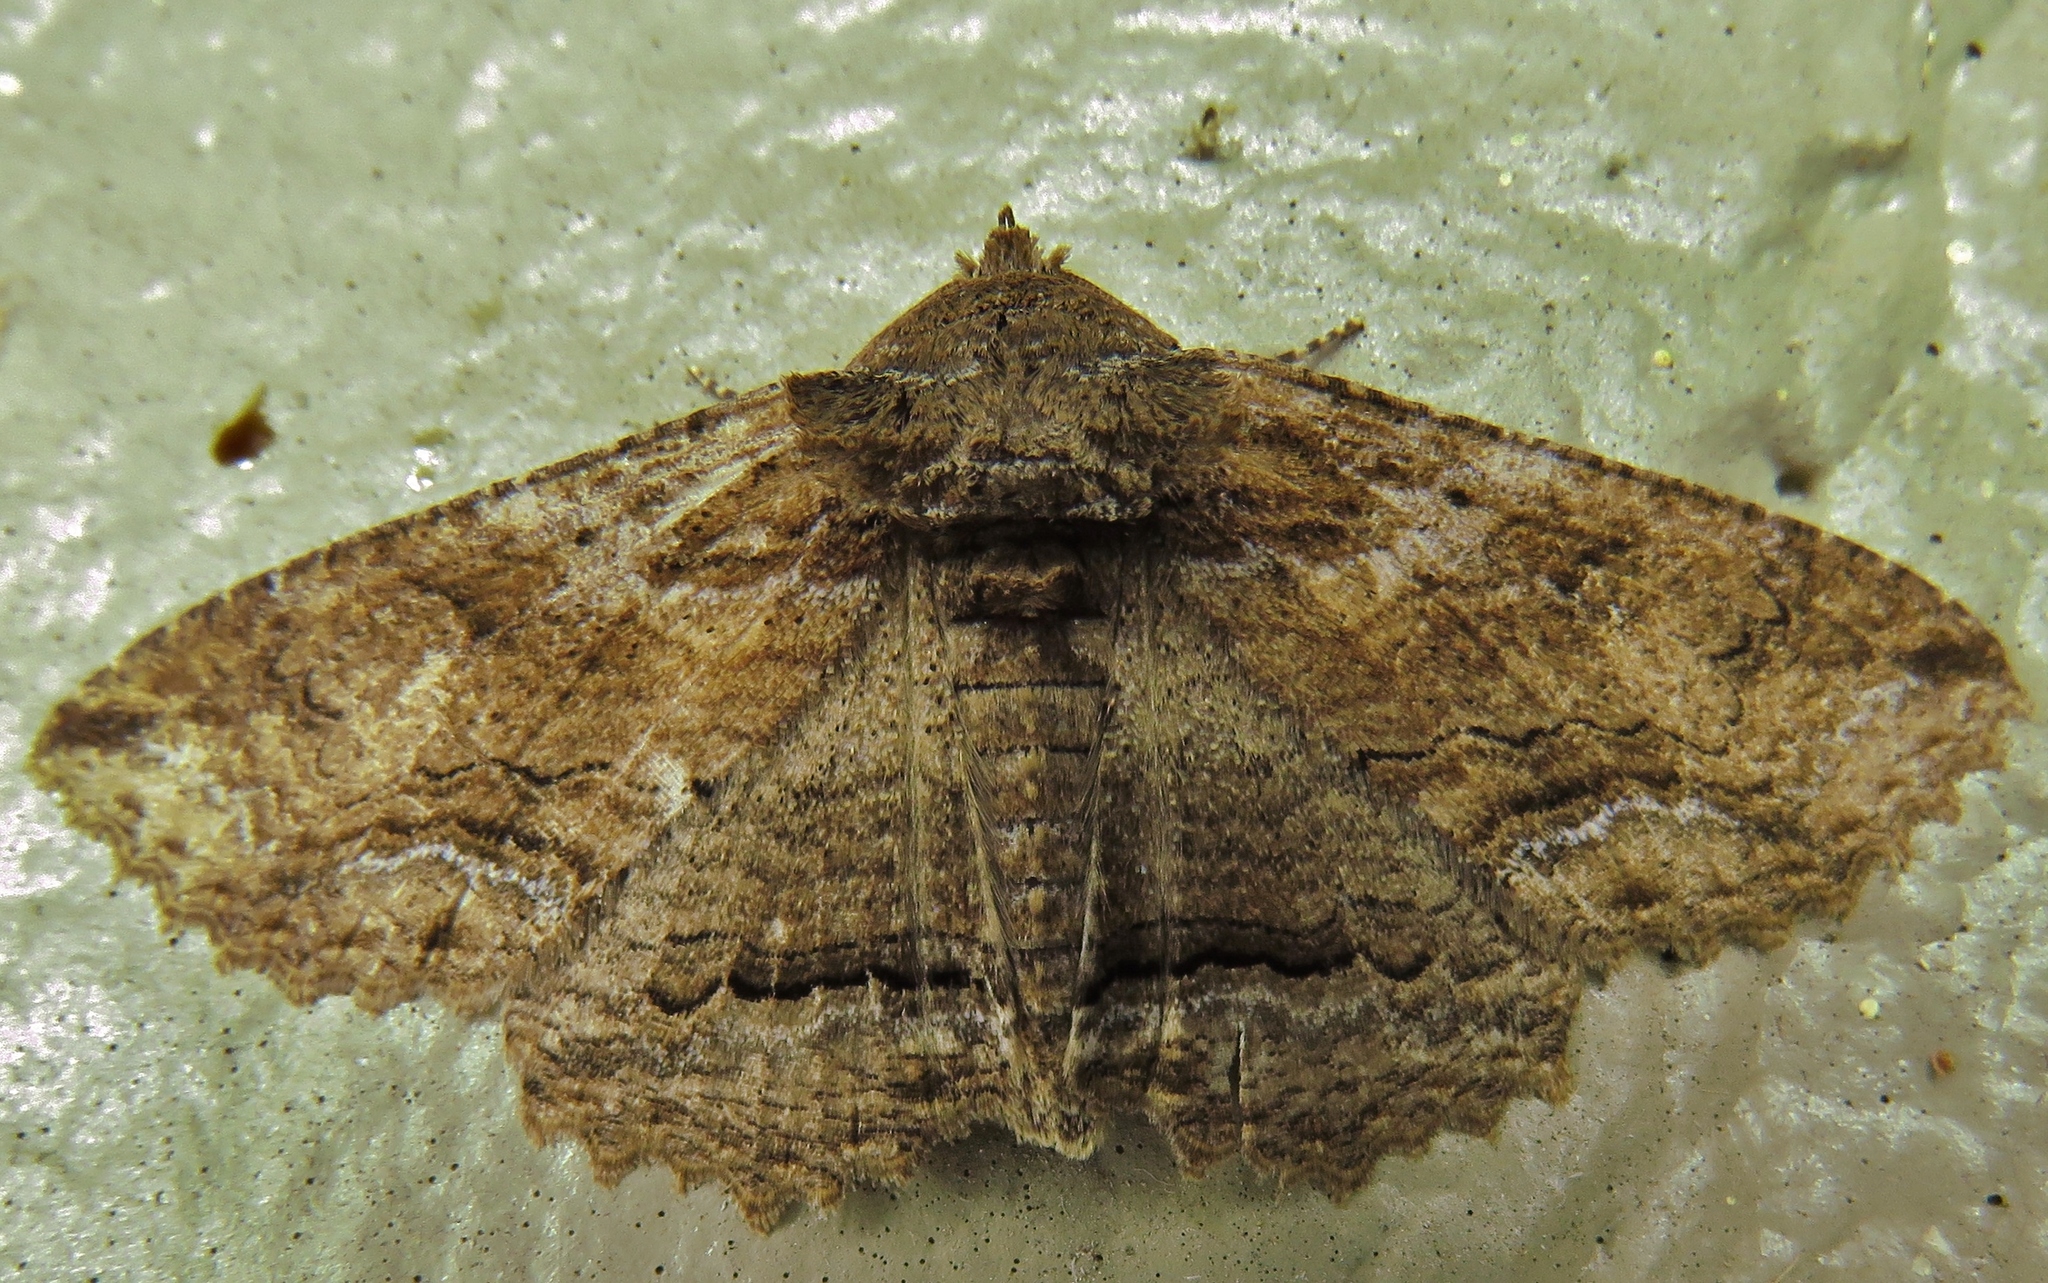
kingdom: Animalia
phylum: Arthropoda
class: Insecta
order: Lepidoptera
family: Erebidae
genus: Zale
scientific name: Zale lunata
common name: Lunate zale moth
